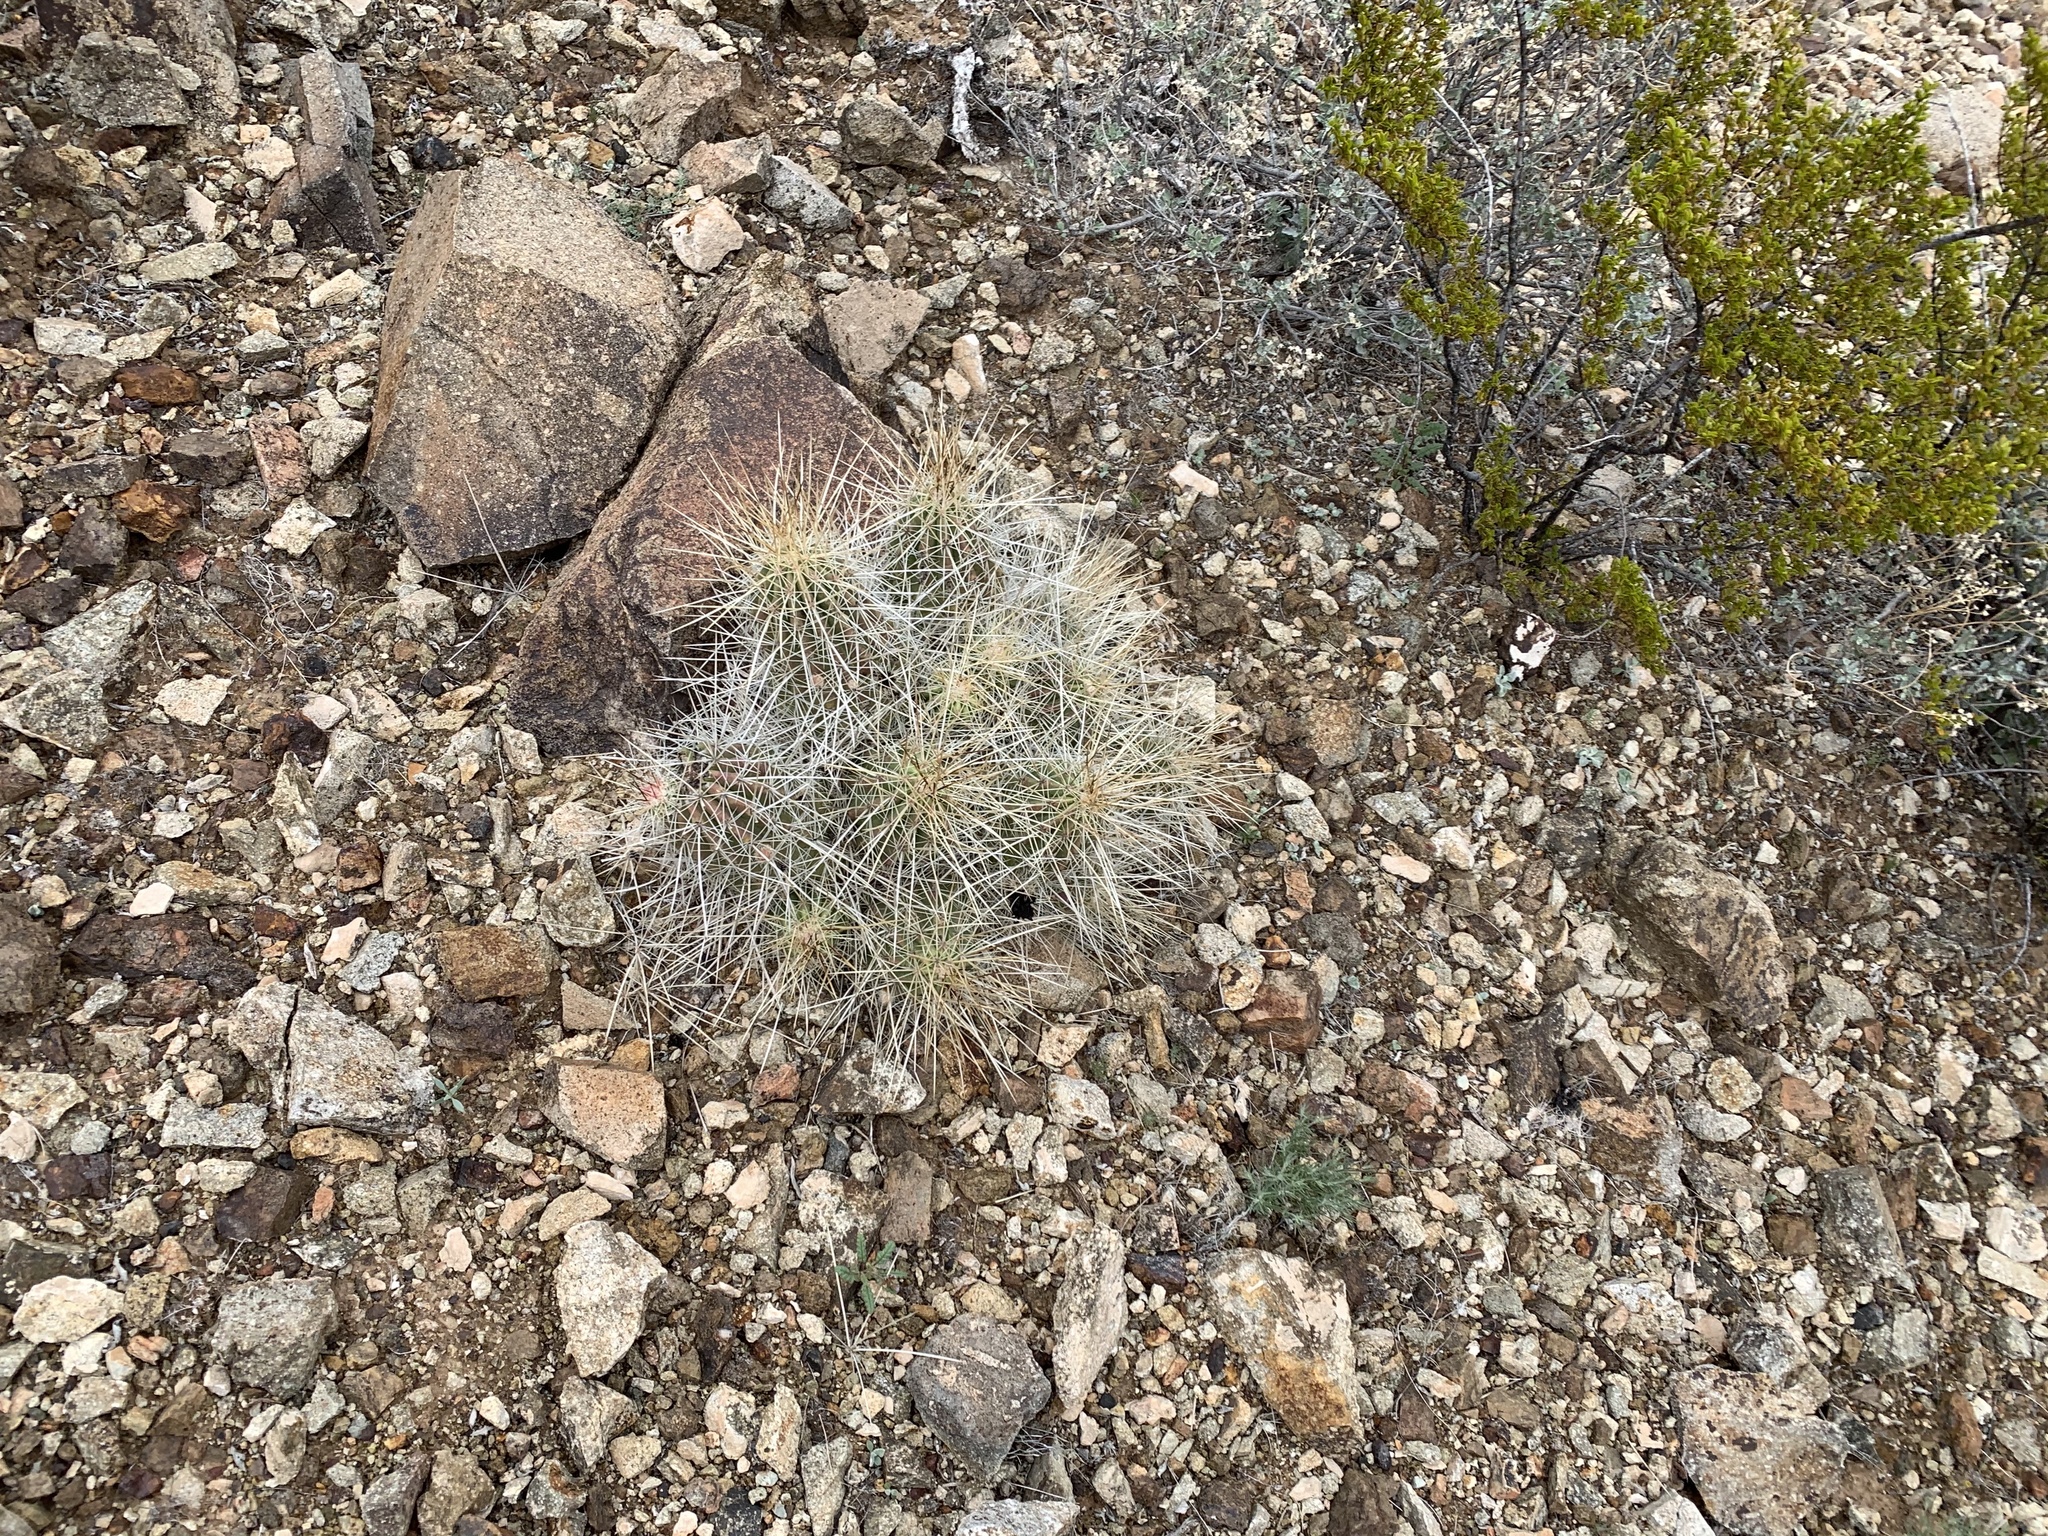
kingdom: Plantae
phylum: Tracheophyta
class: Magnoliopsida
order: Caryophyllales
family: Cactaceae
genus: Echinocereus
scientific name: Echinocereus stramineus
